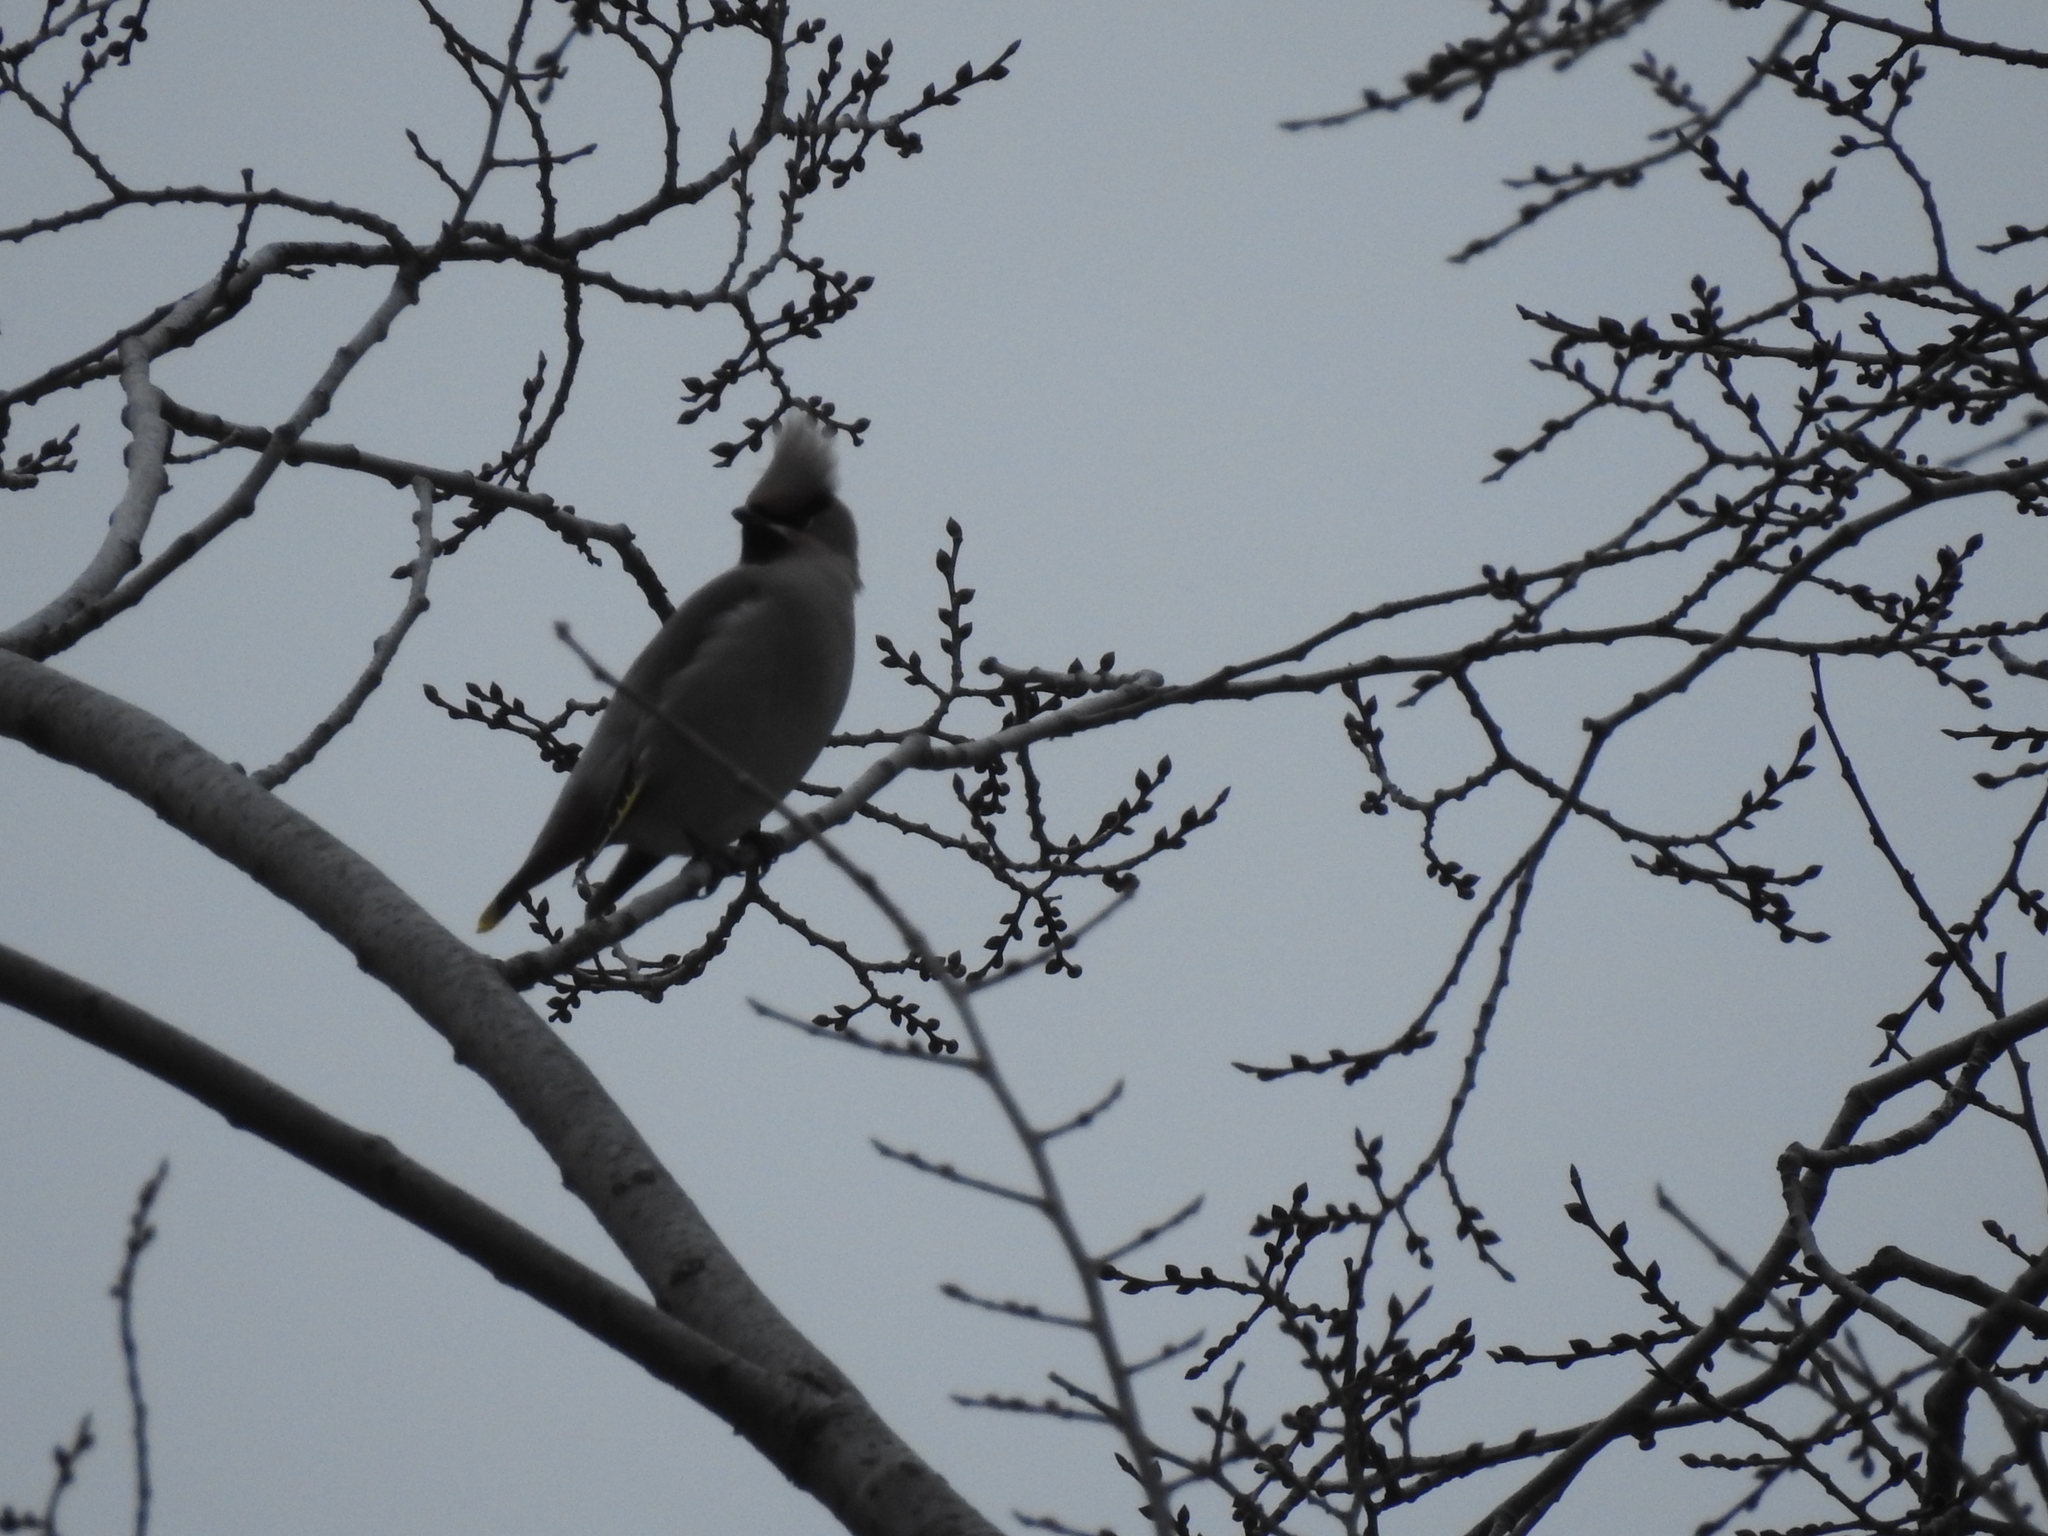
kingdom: Animalia
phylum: Chordata
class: Aves
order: Passeriformes
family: Bombycillidae
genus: Bombycilla
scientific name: Bombycilla garrulus
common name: Bohemian waxwing
